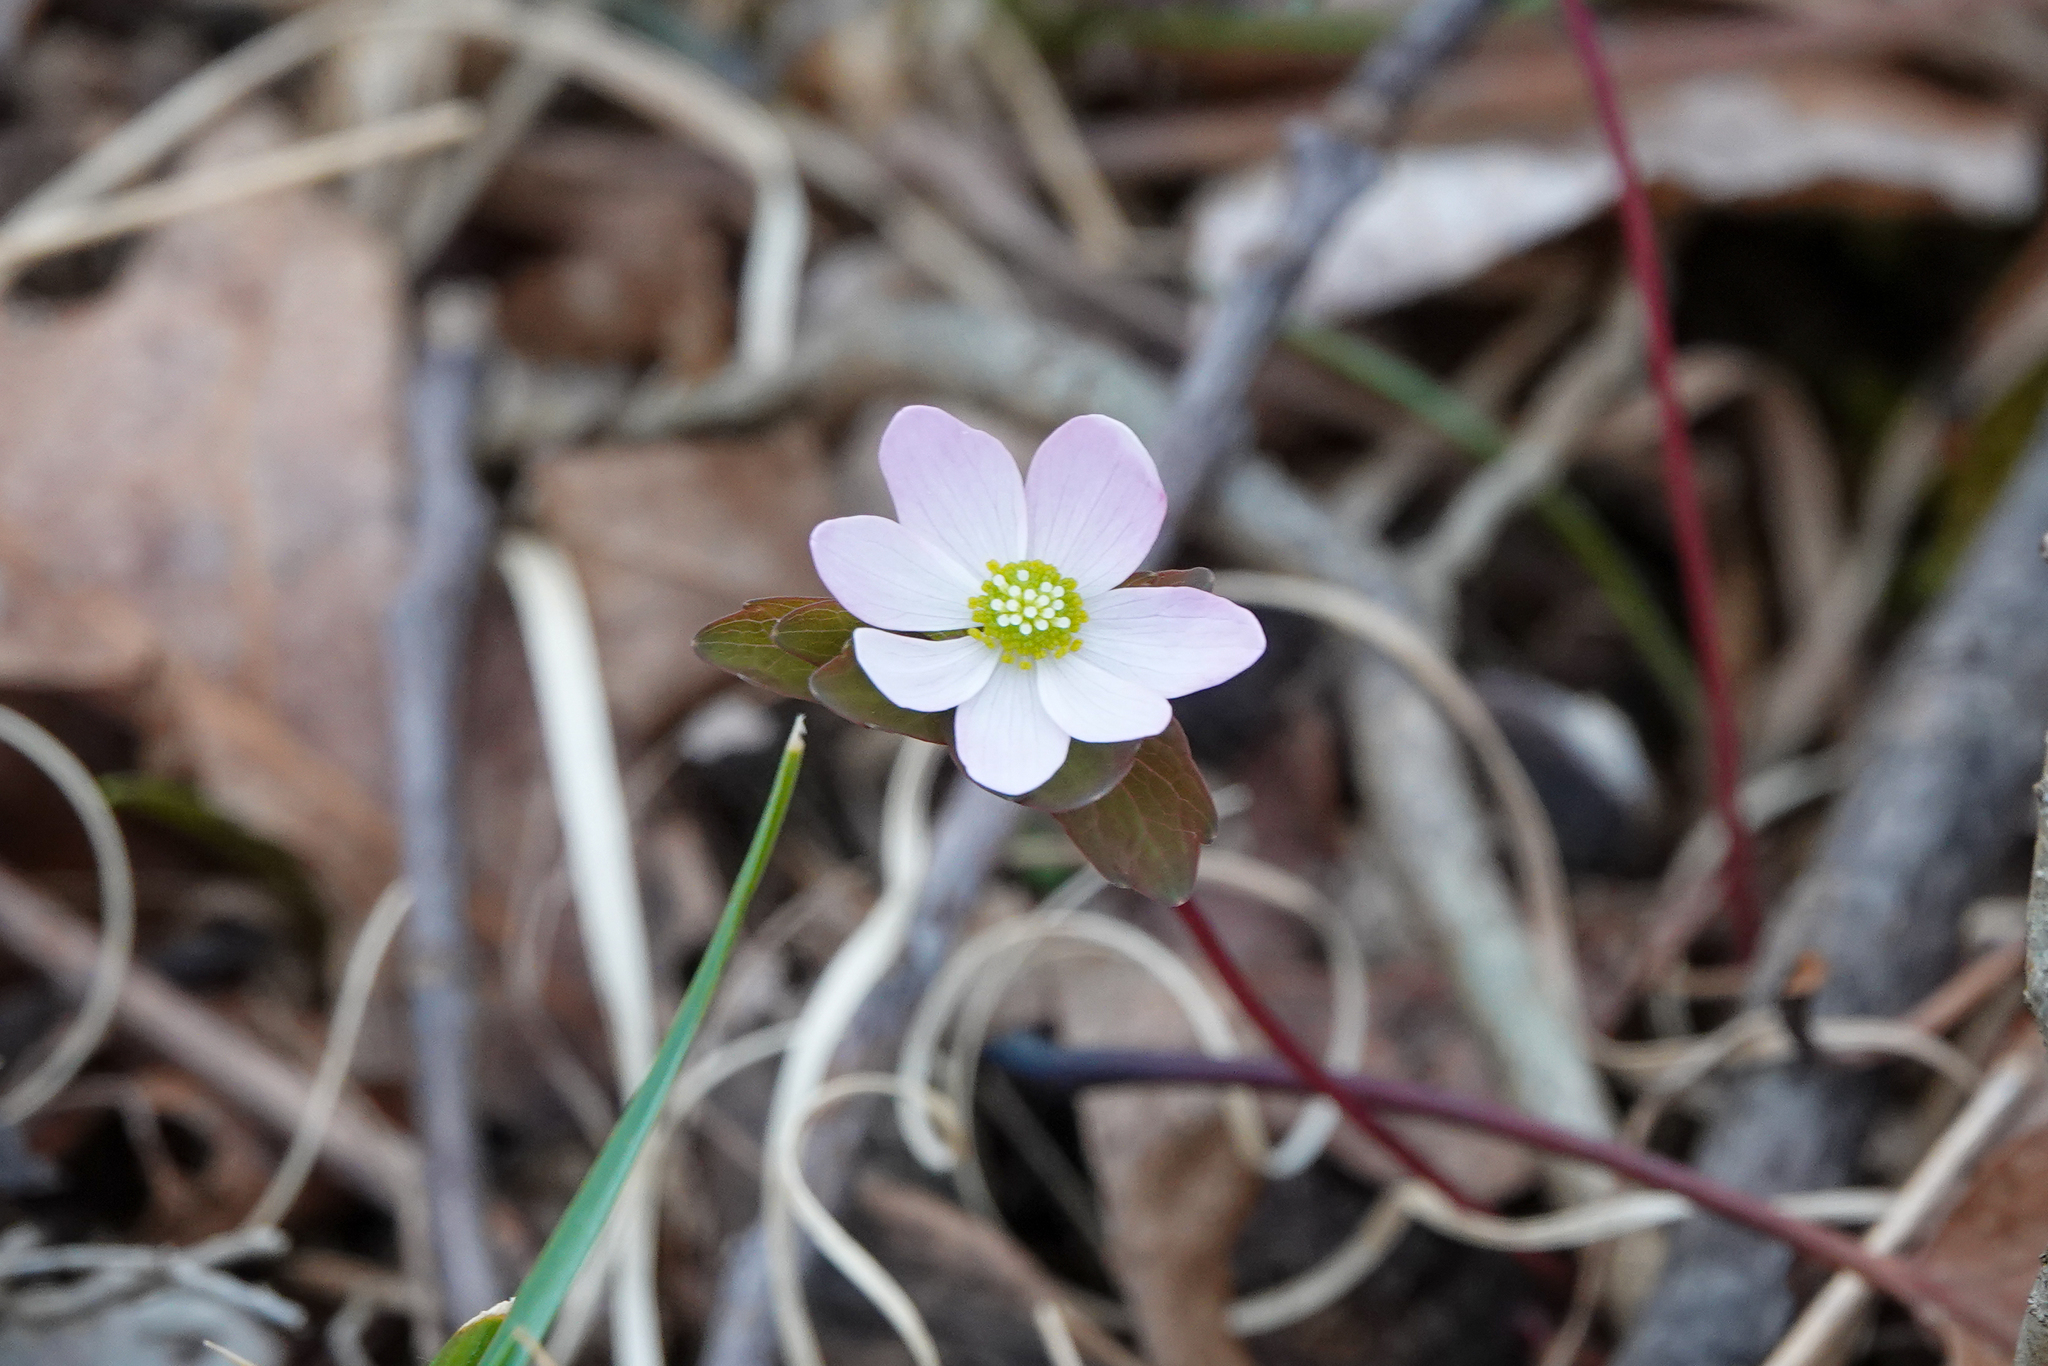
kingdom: Plantae
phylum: Tracheophyta
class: Magnoliopsida
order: Ranunculales
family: Ranunculaceae
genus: Thalictrum
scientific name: Thalictrum thalictroides
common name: Rue-anemone
